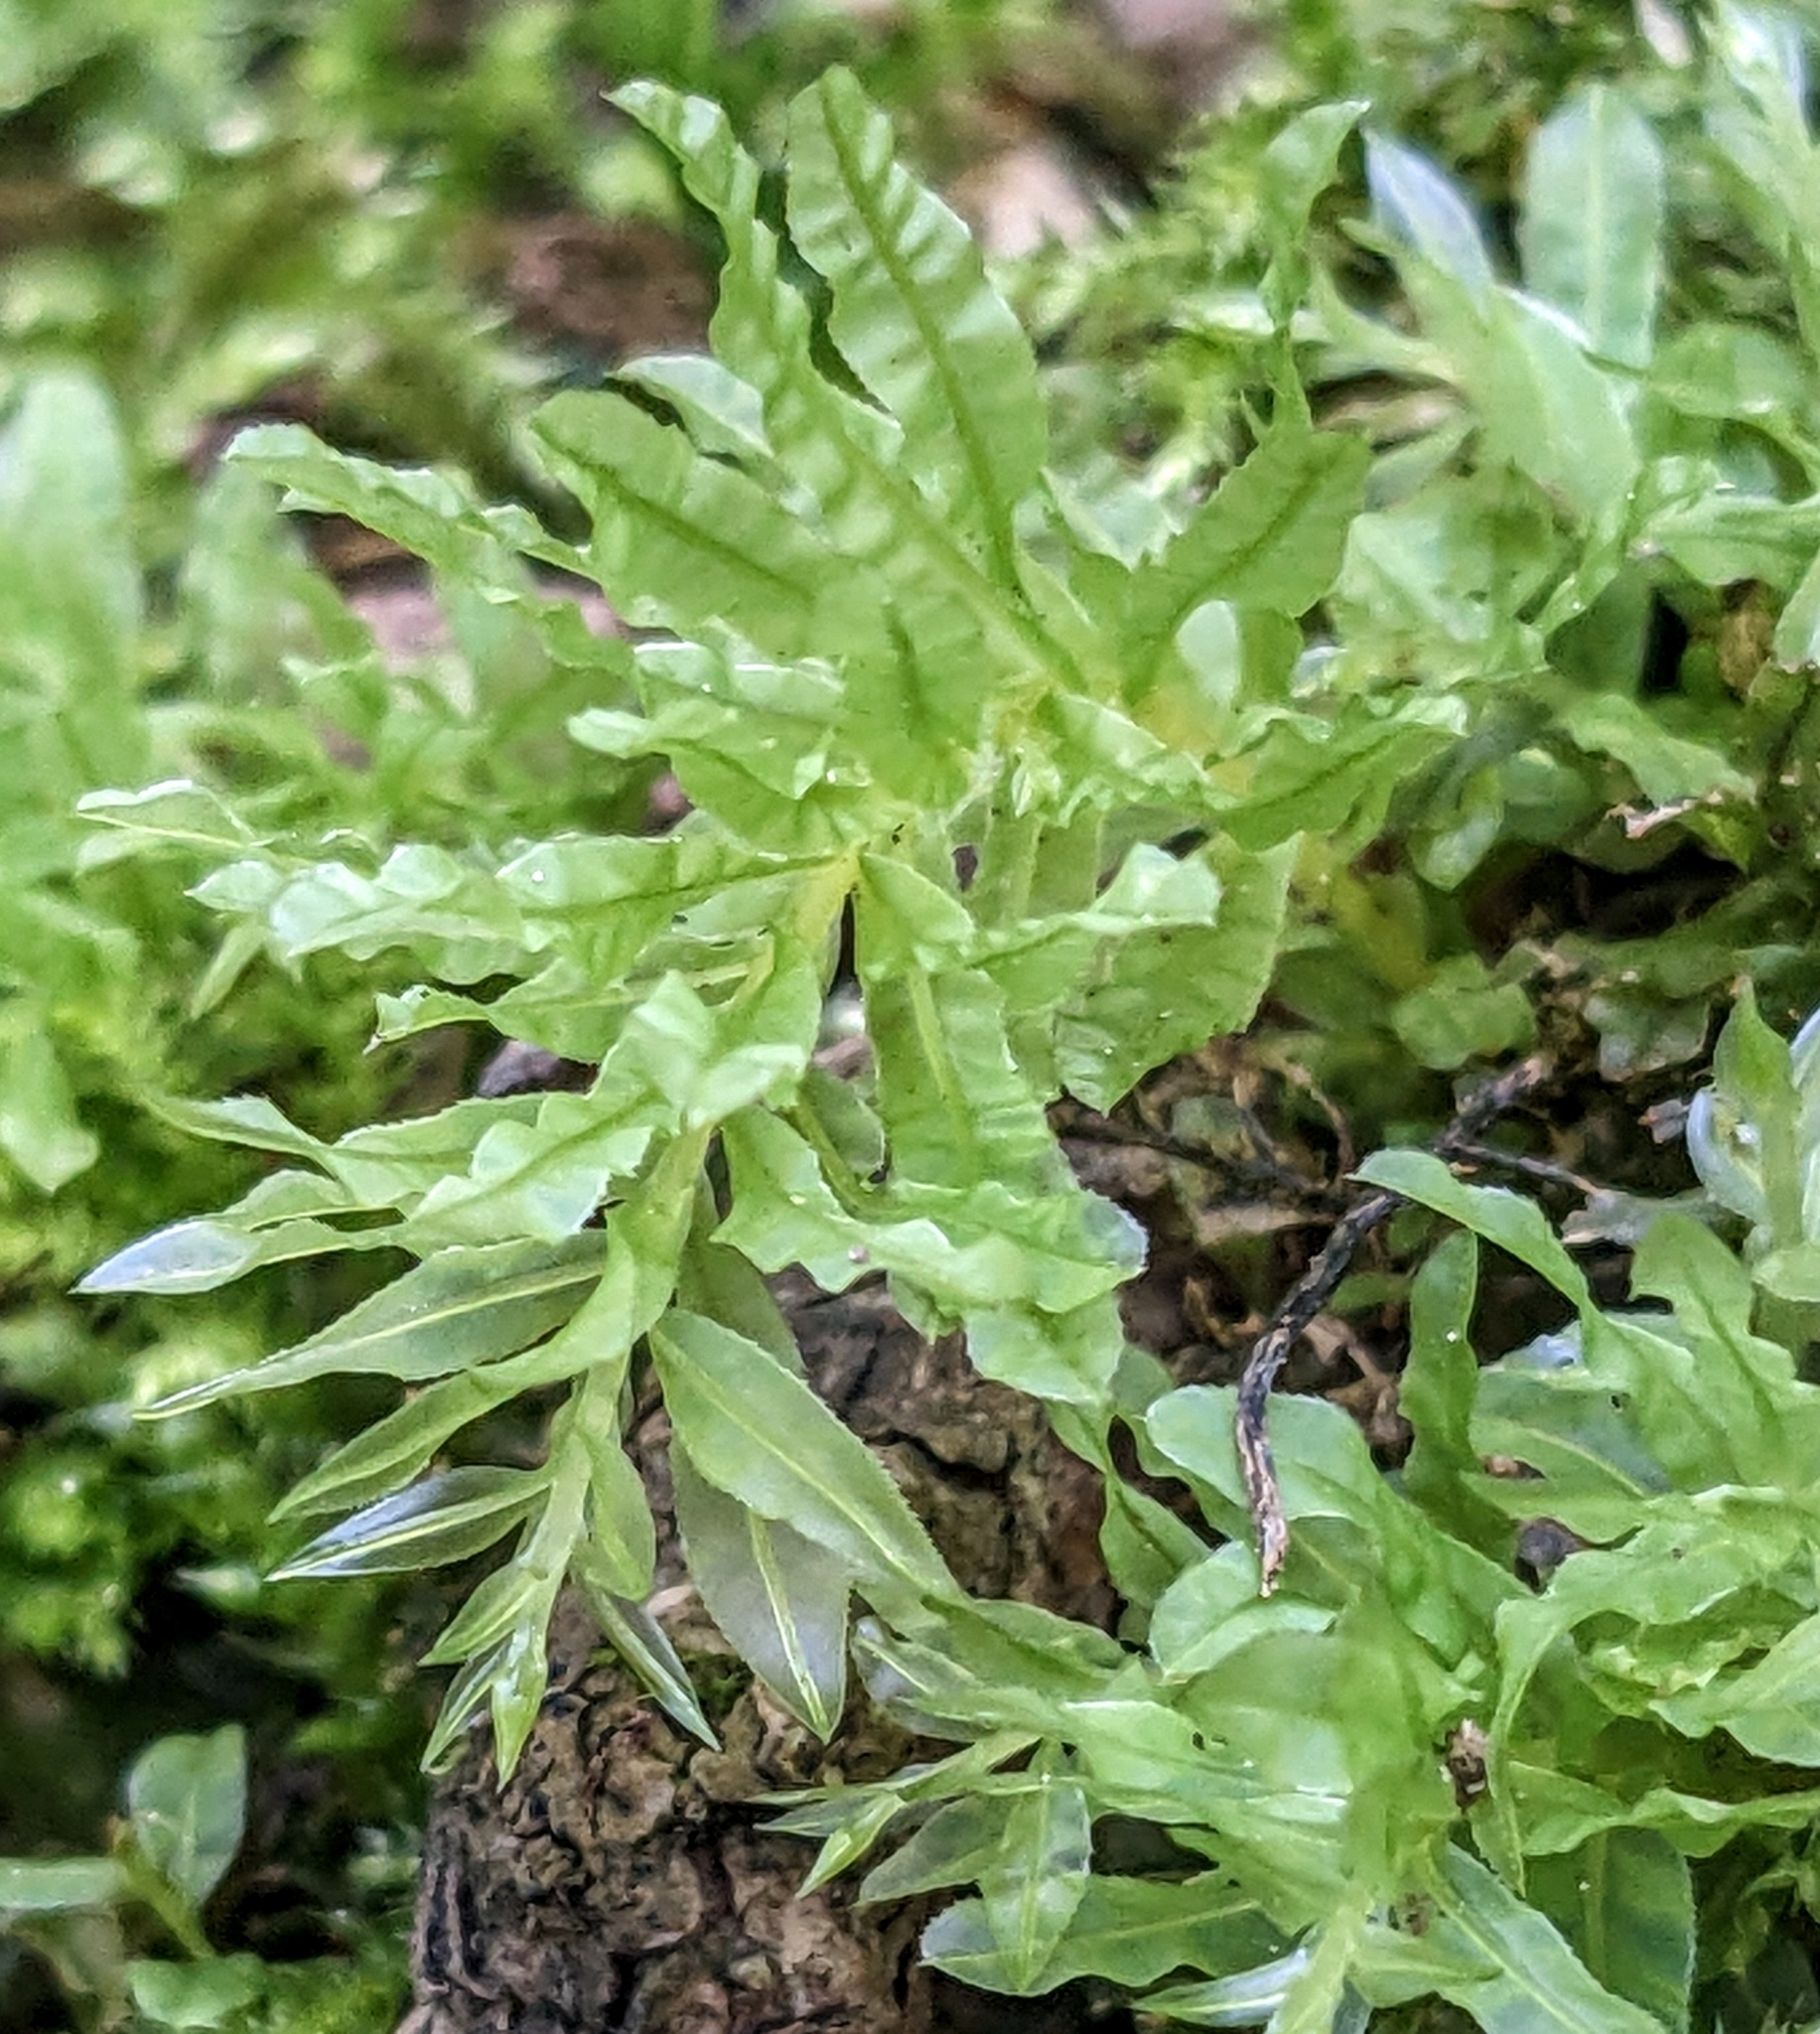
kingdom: Plantae
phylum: Bryophyta
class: Bryopsida
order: Bryales
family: Mniaceae
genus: Plagiomnium
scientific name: Plagiomnium undulatum
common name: Hart's-tongue thyme-moss
